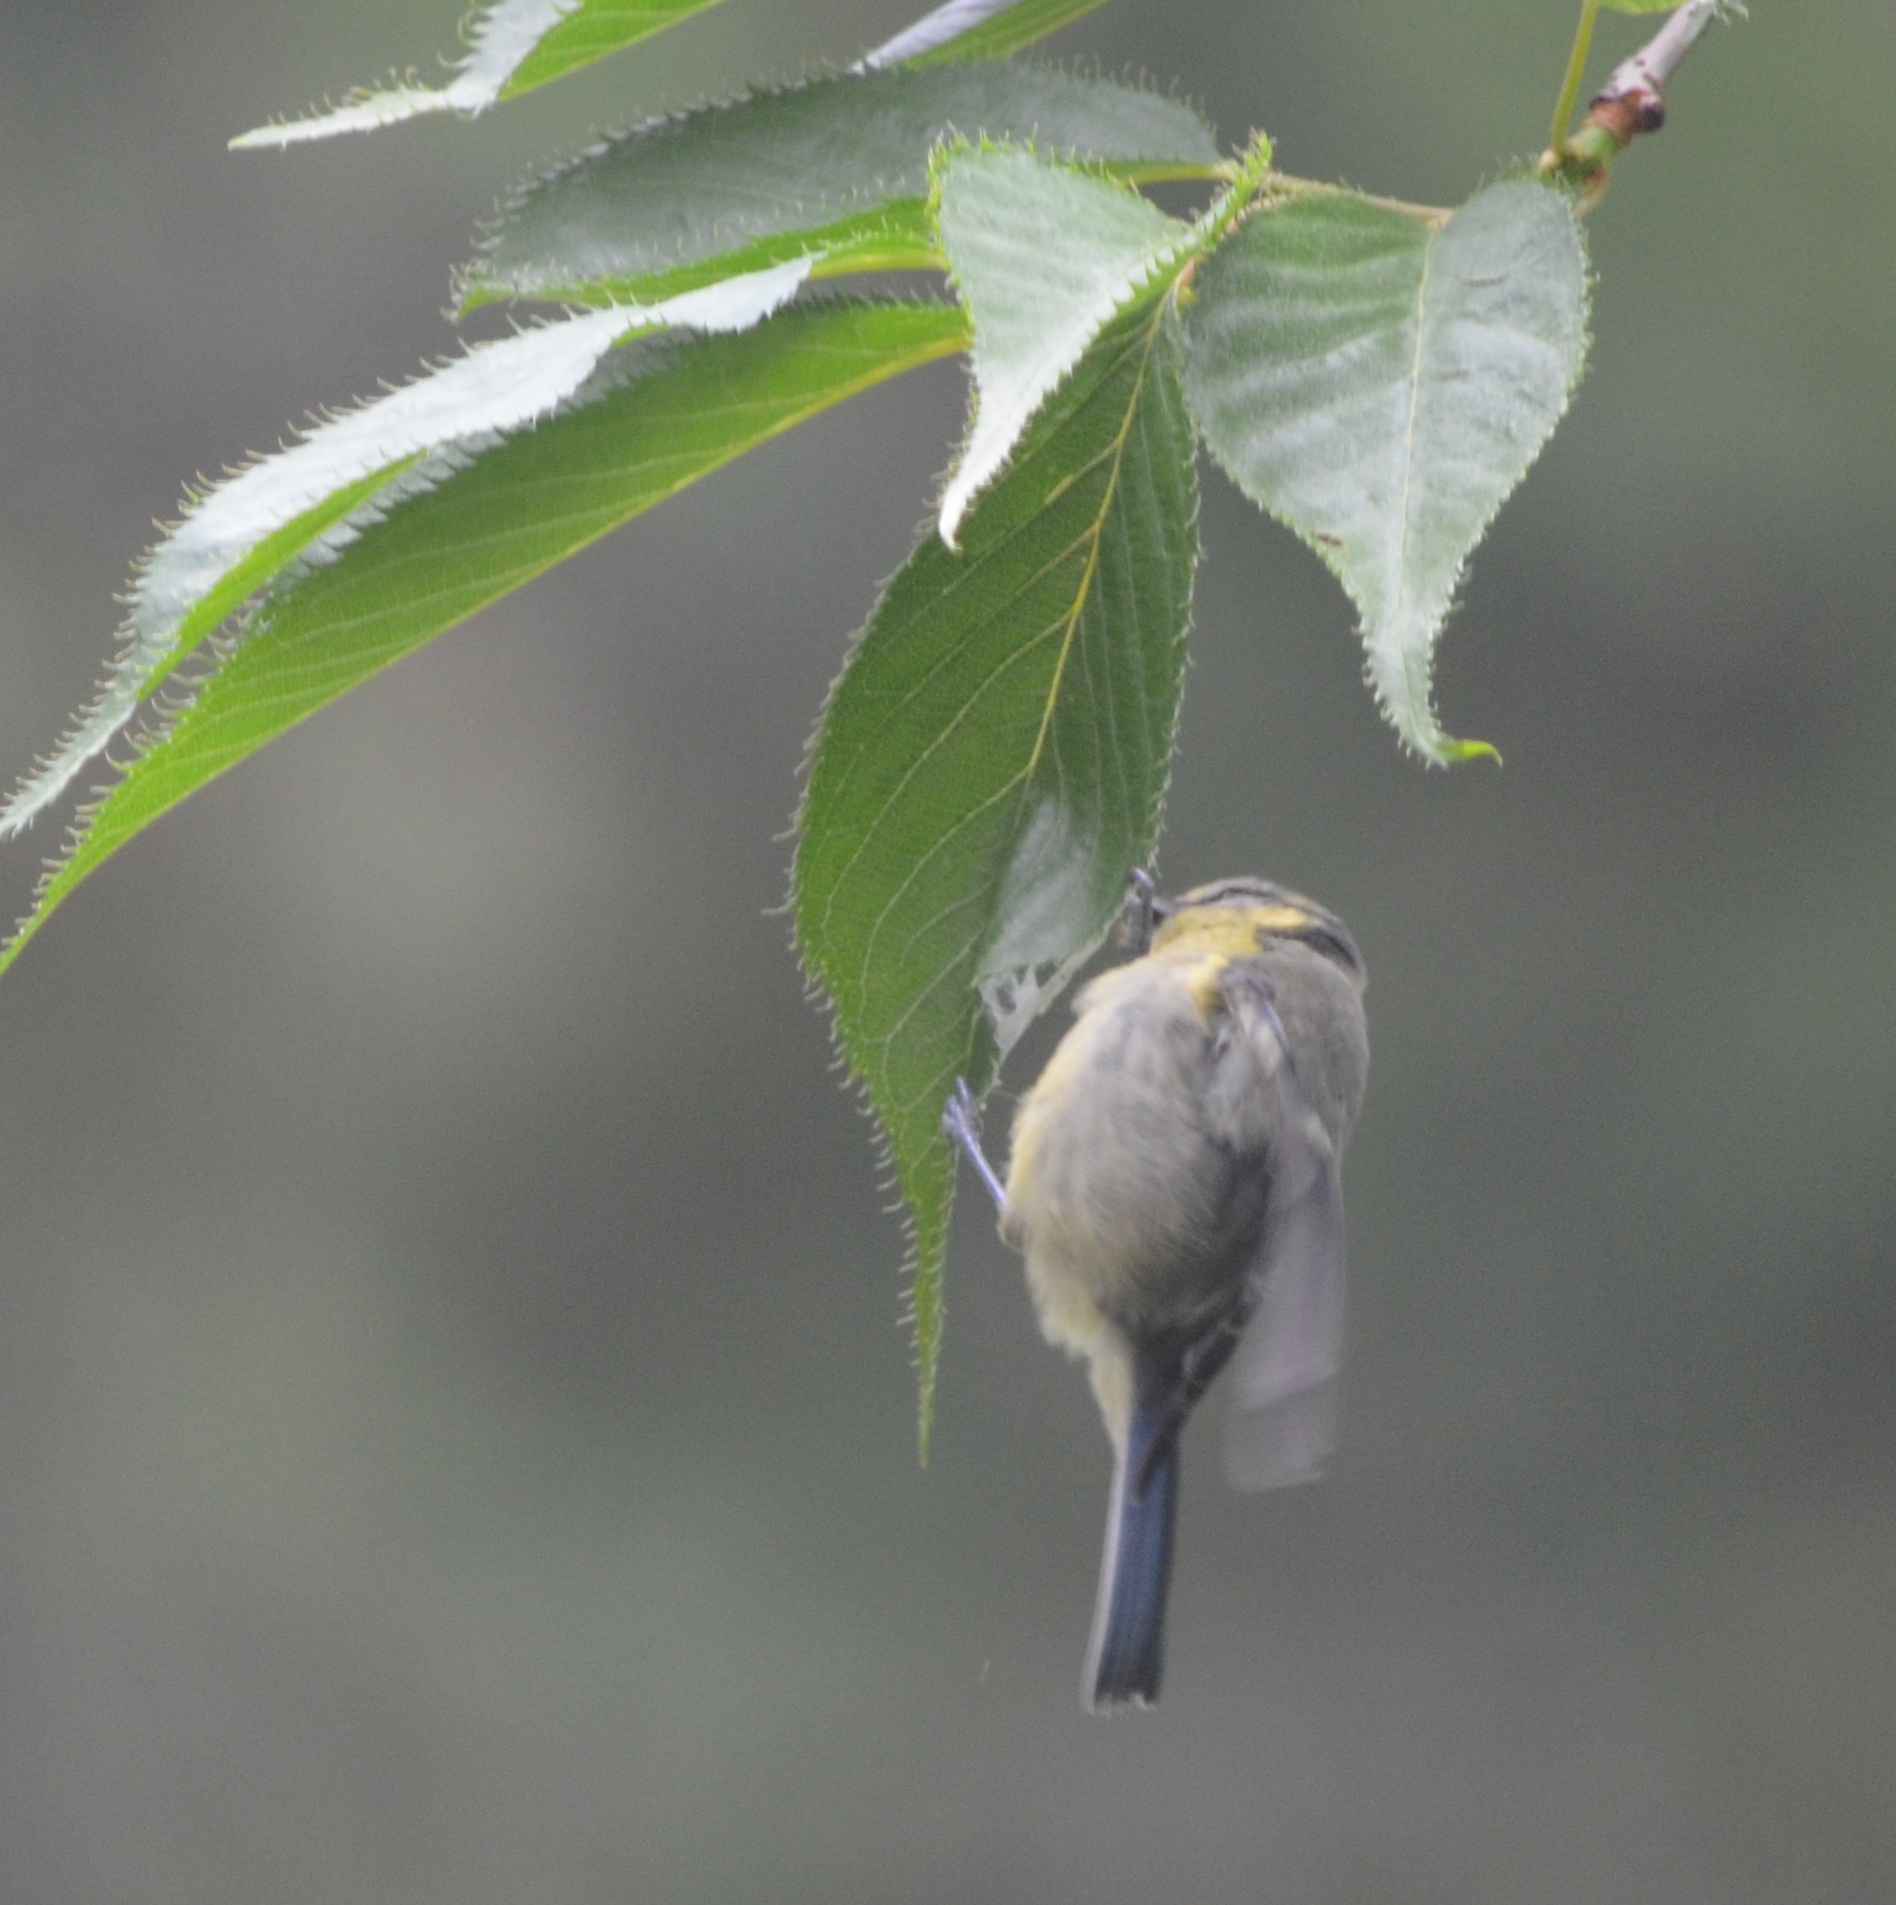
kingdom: Animalia
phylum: Chordata
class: Aves
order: Passeriformes
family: Paridae
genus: Cyanistes
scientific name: Cyanistes caeruleus
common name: Eurasian blue tit
